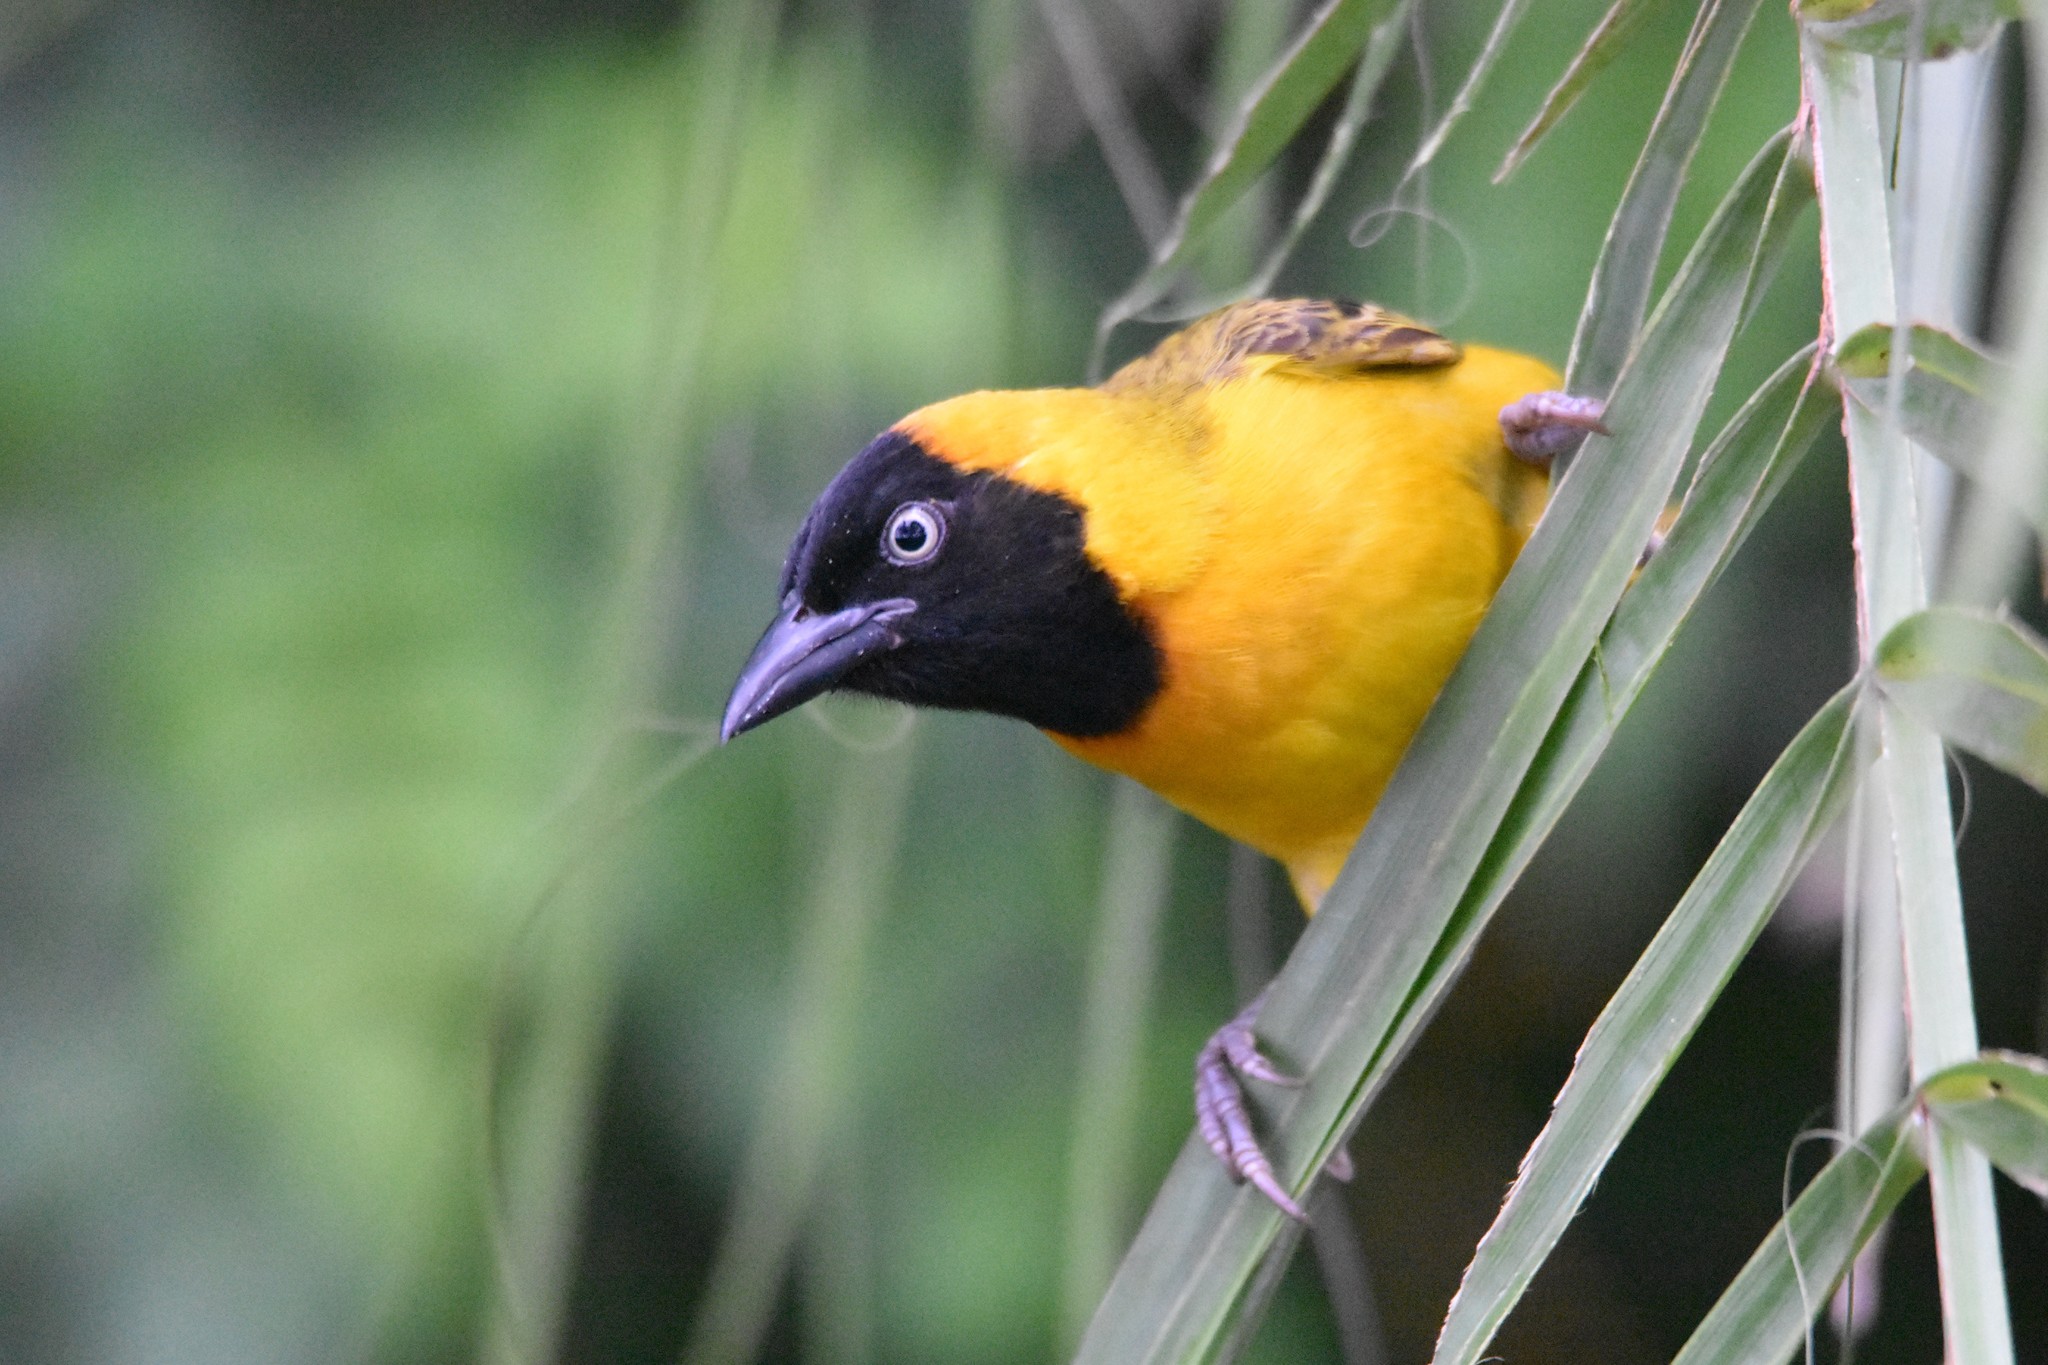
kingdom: Animalia
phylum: Chordata
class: Aves
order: Passeriformes
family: Ploceidae
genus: Ploceus
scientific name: Ploceus intermedius
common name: Lesser masked weaver
